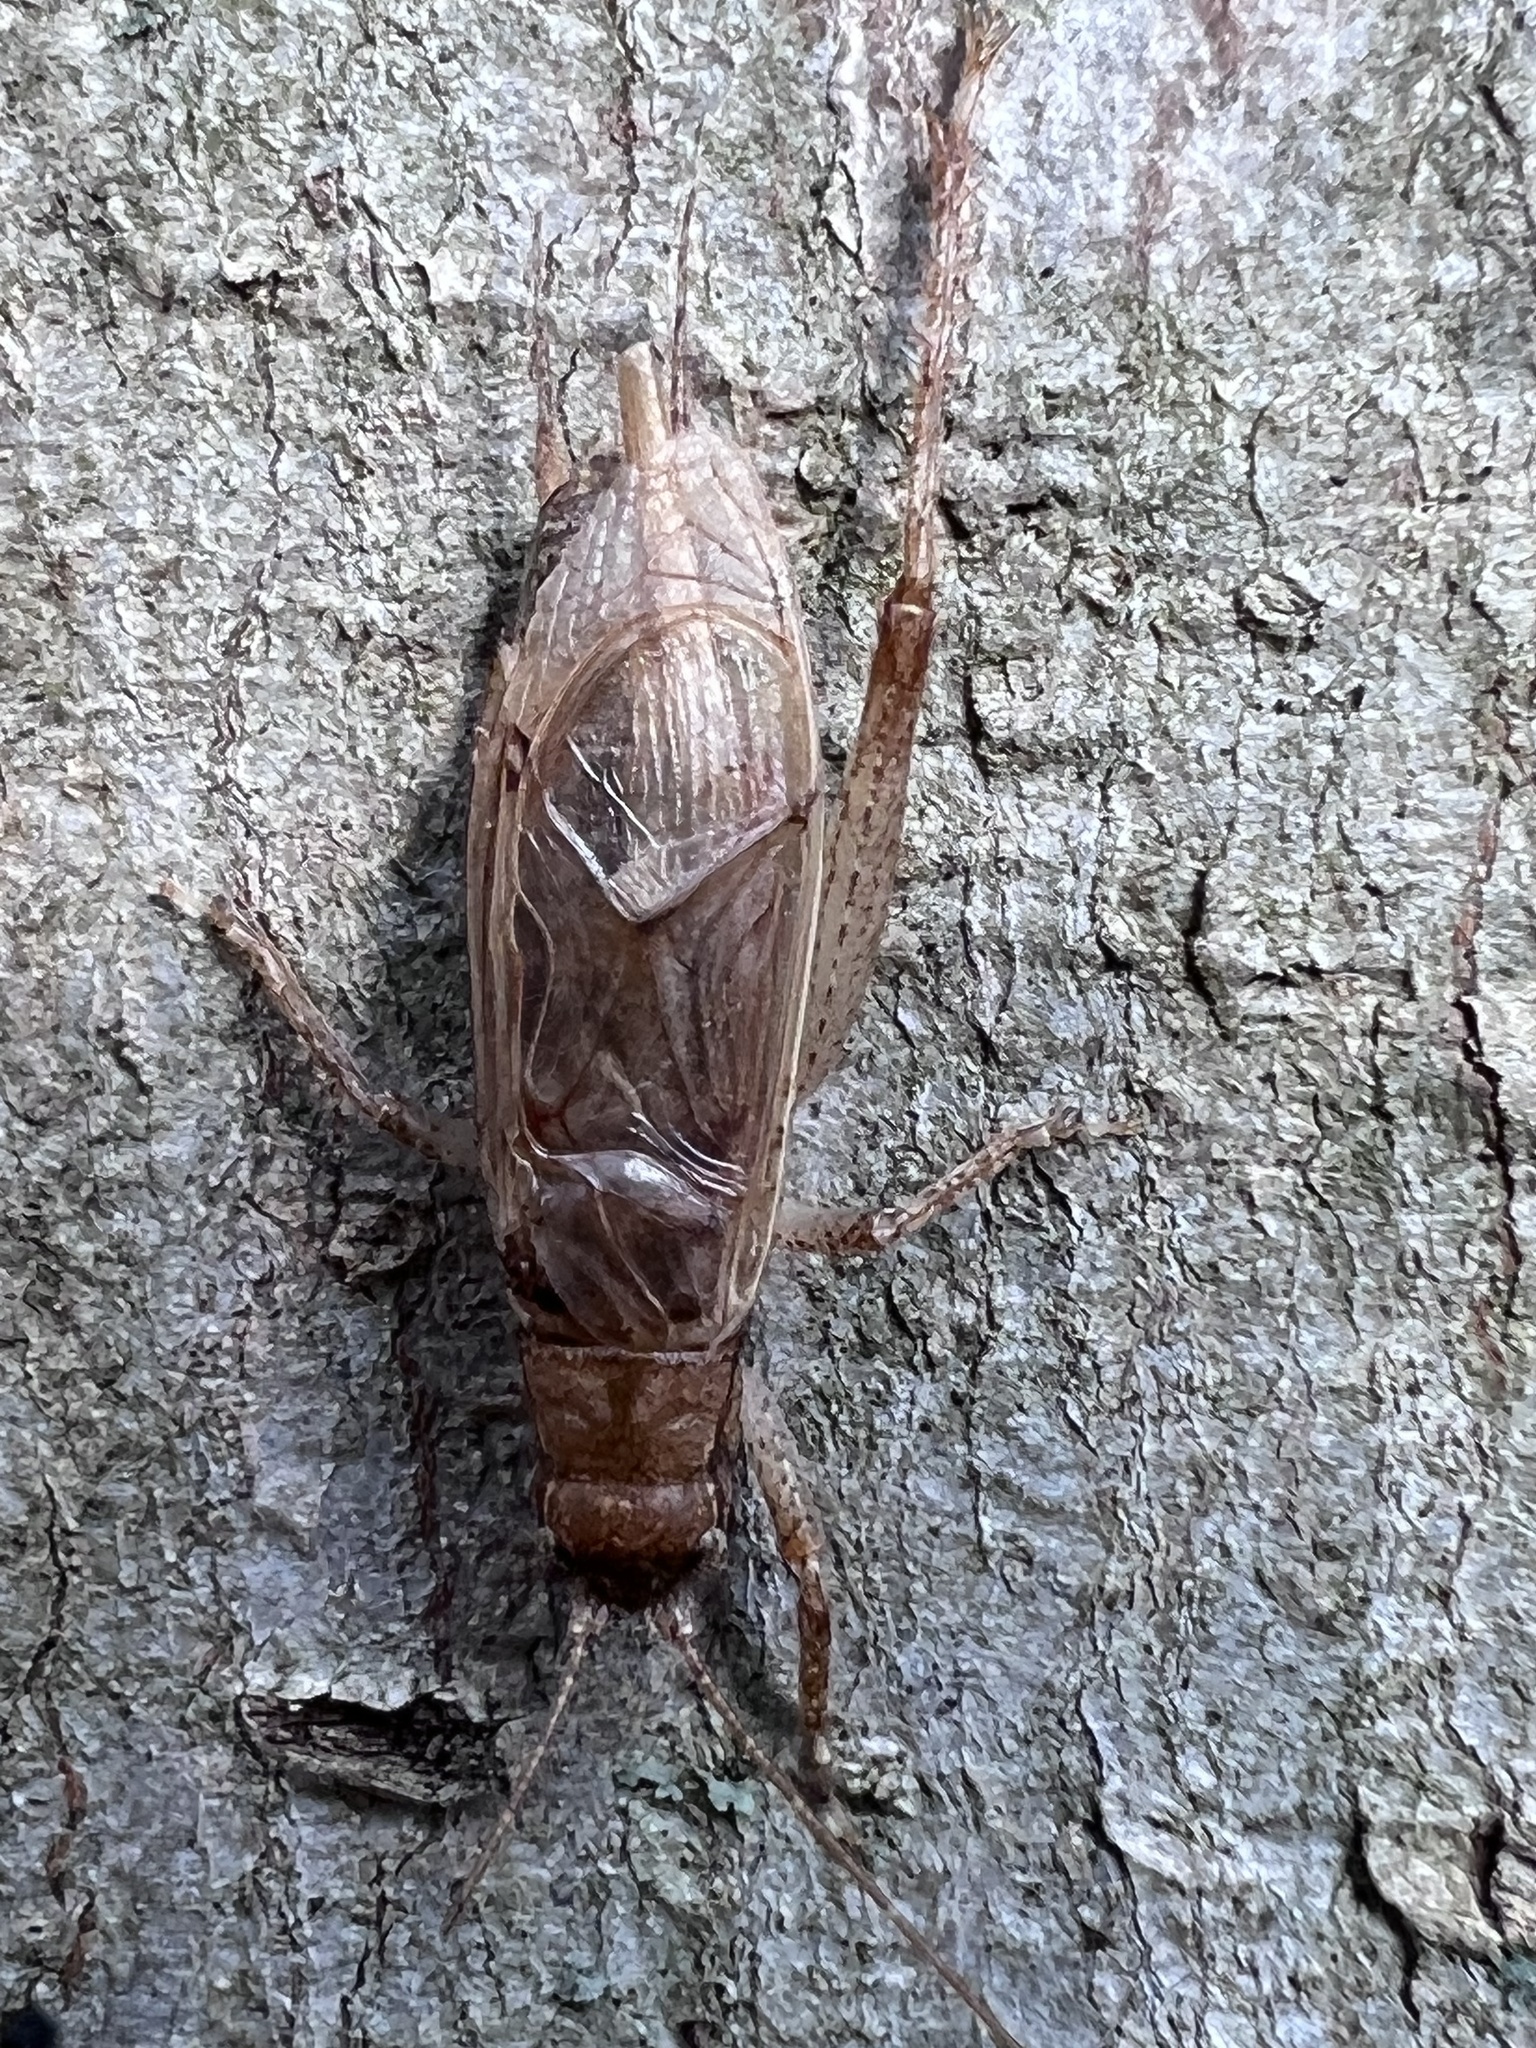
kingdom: Animalia
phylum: Arthropoda
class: Insecta
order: Orthoptera
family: Gryllidae
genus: Hapithus
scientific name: Hapithus saltator
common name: Jumping bush cricket
